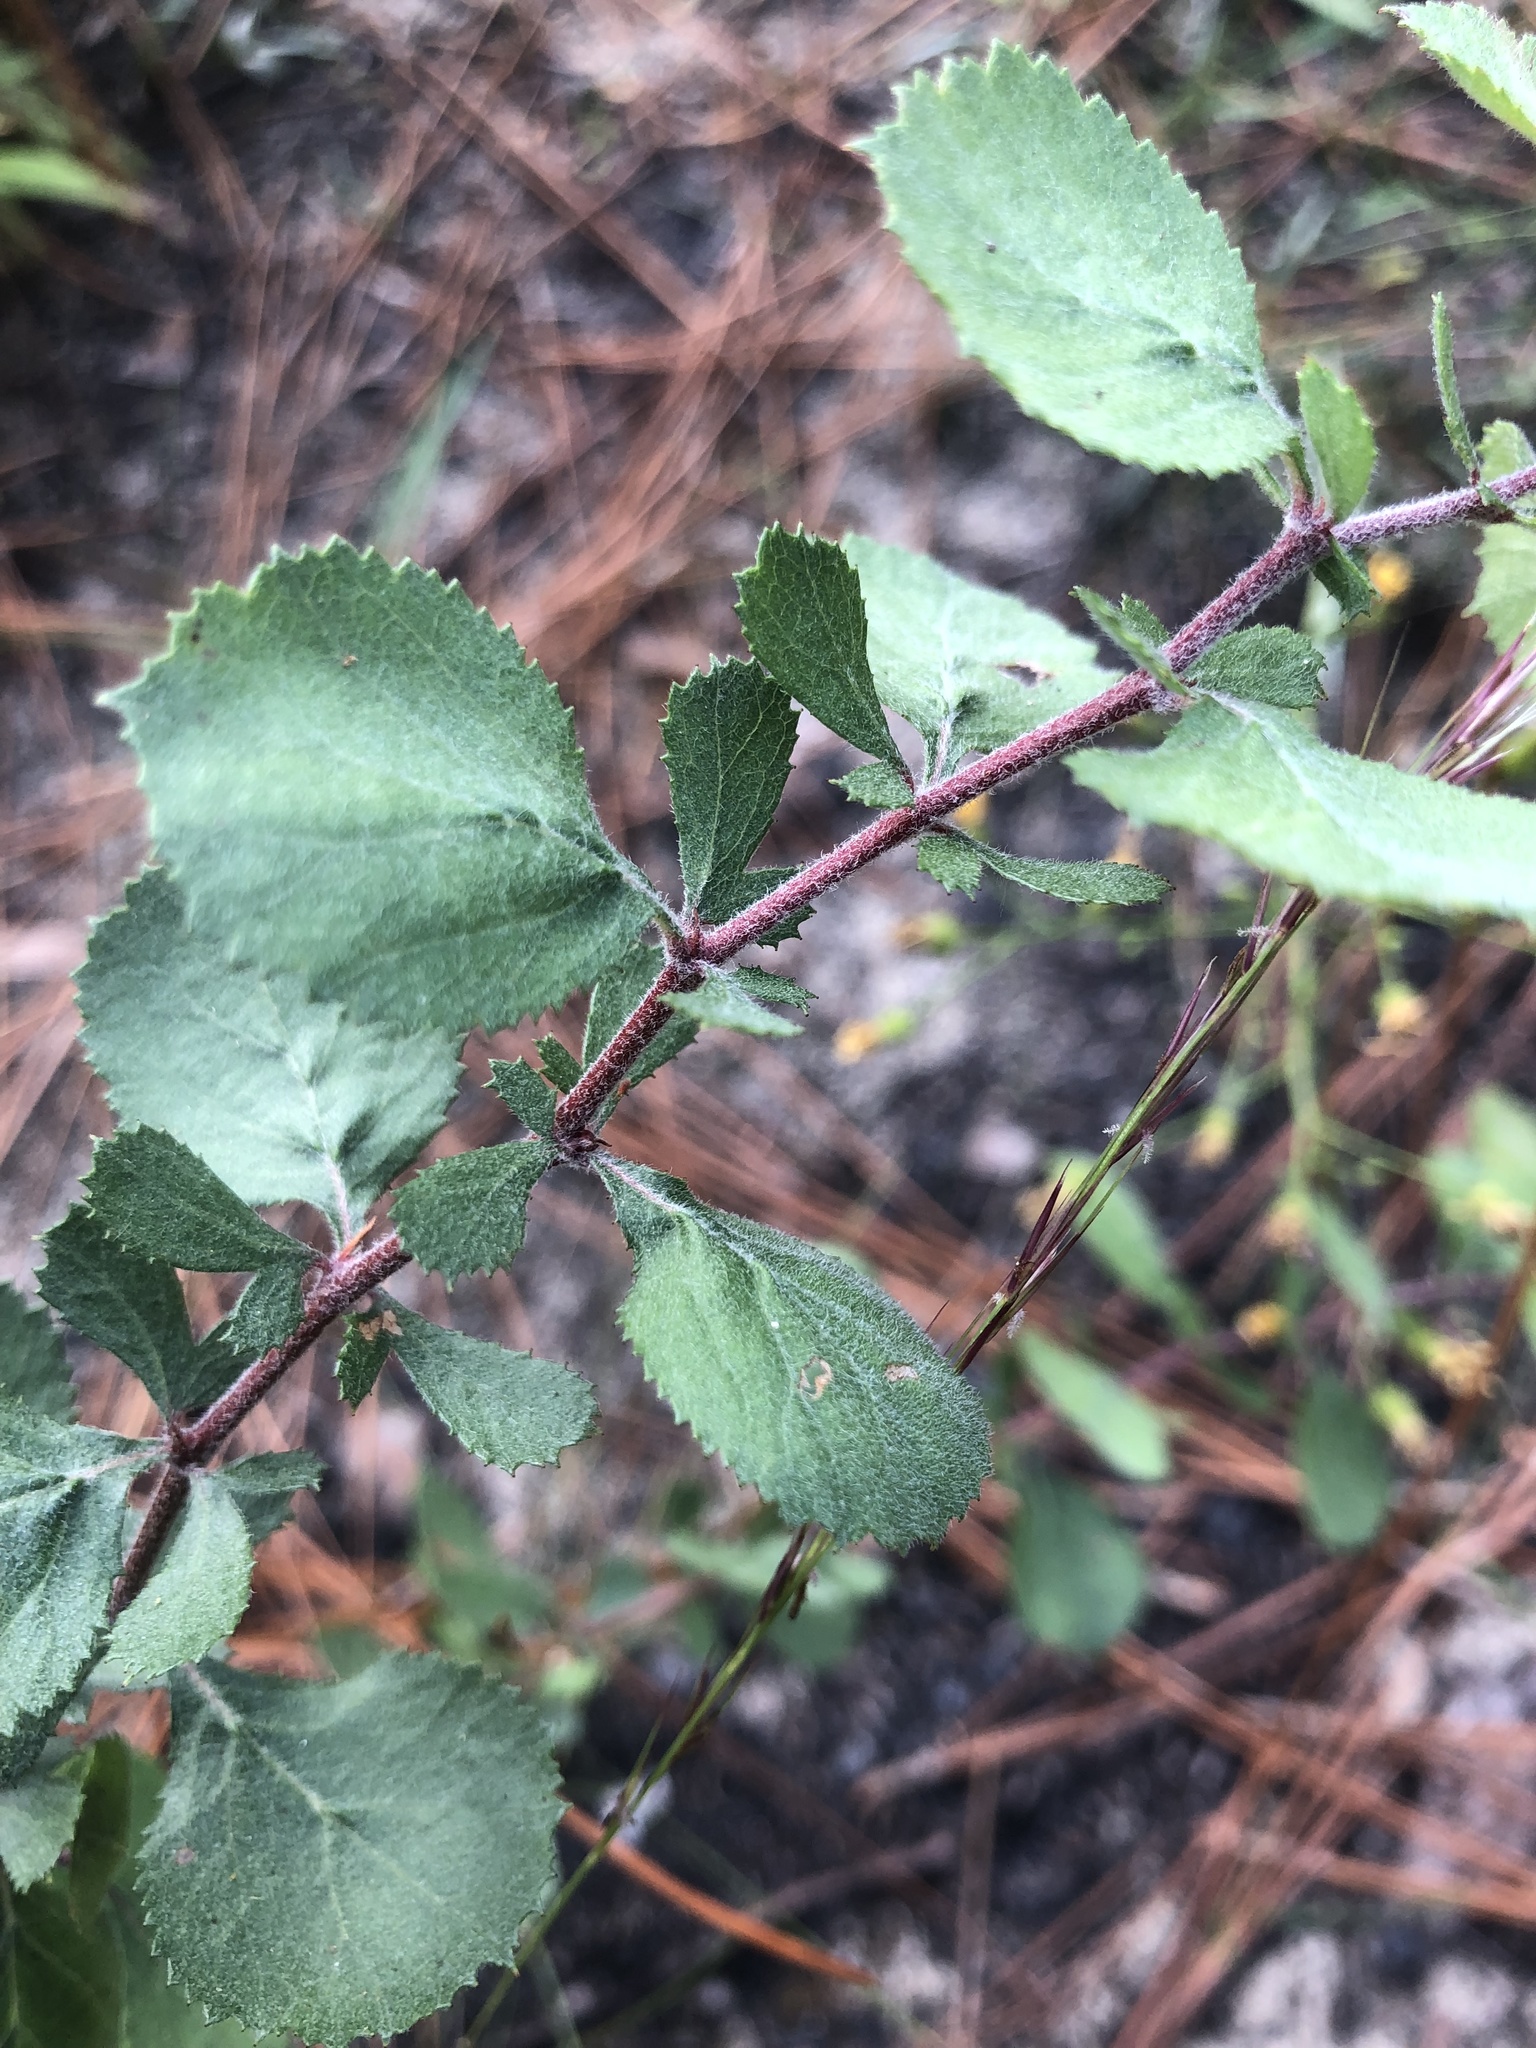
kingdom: Plantae
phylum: Tracheophyta
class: Magnoliopsida
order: Rosales
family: Rosaceae
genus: Crataegus
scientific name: Crataegus munda
